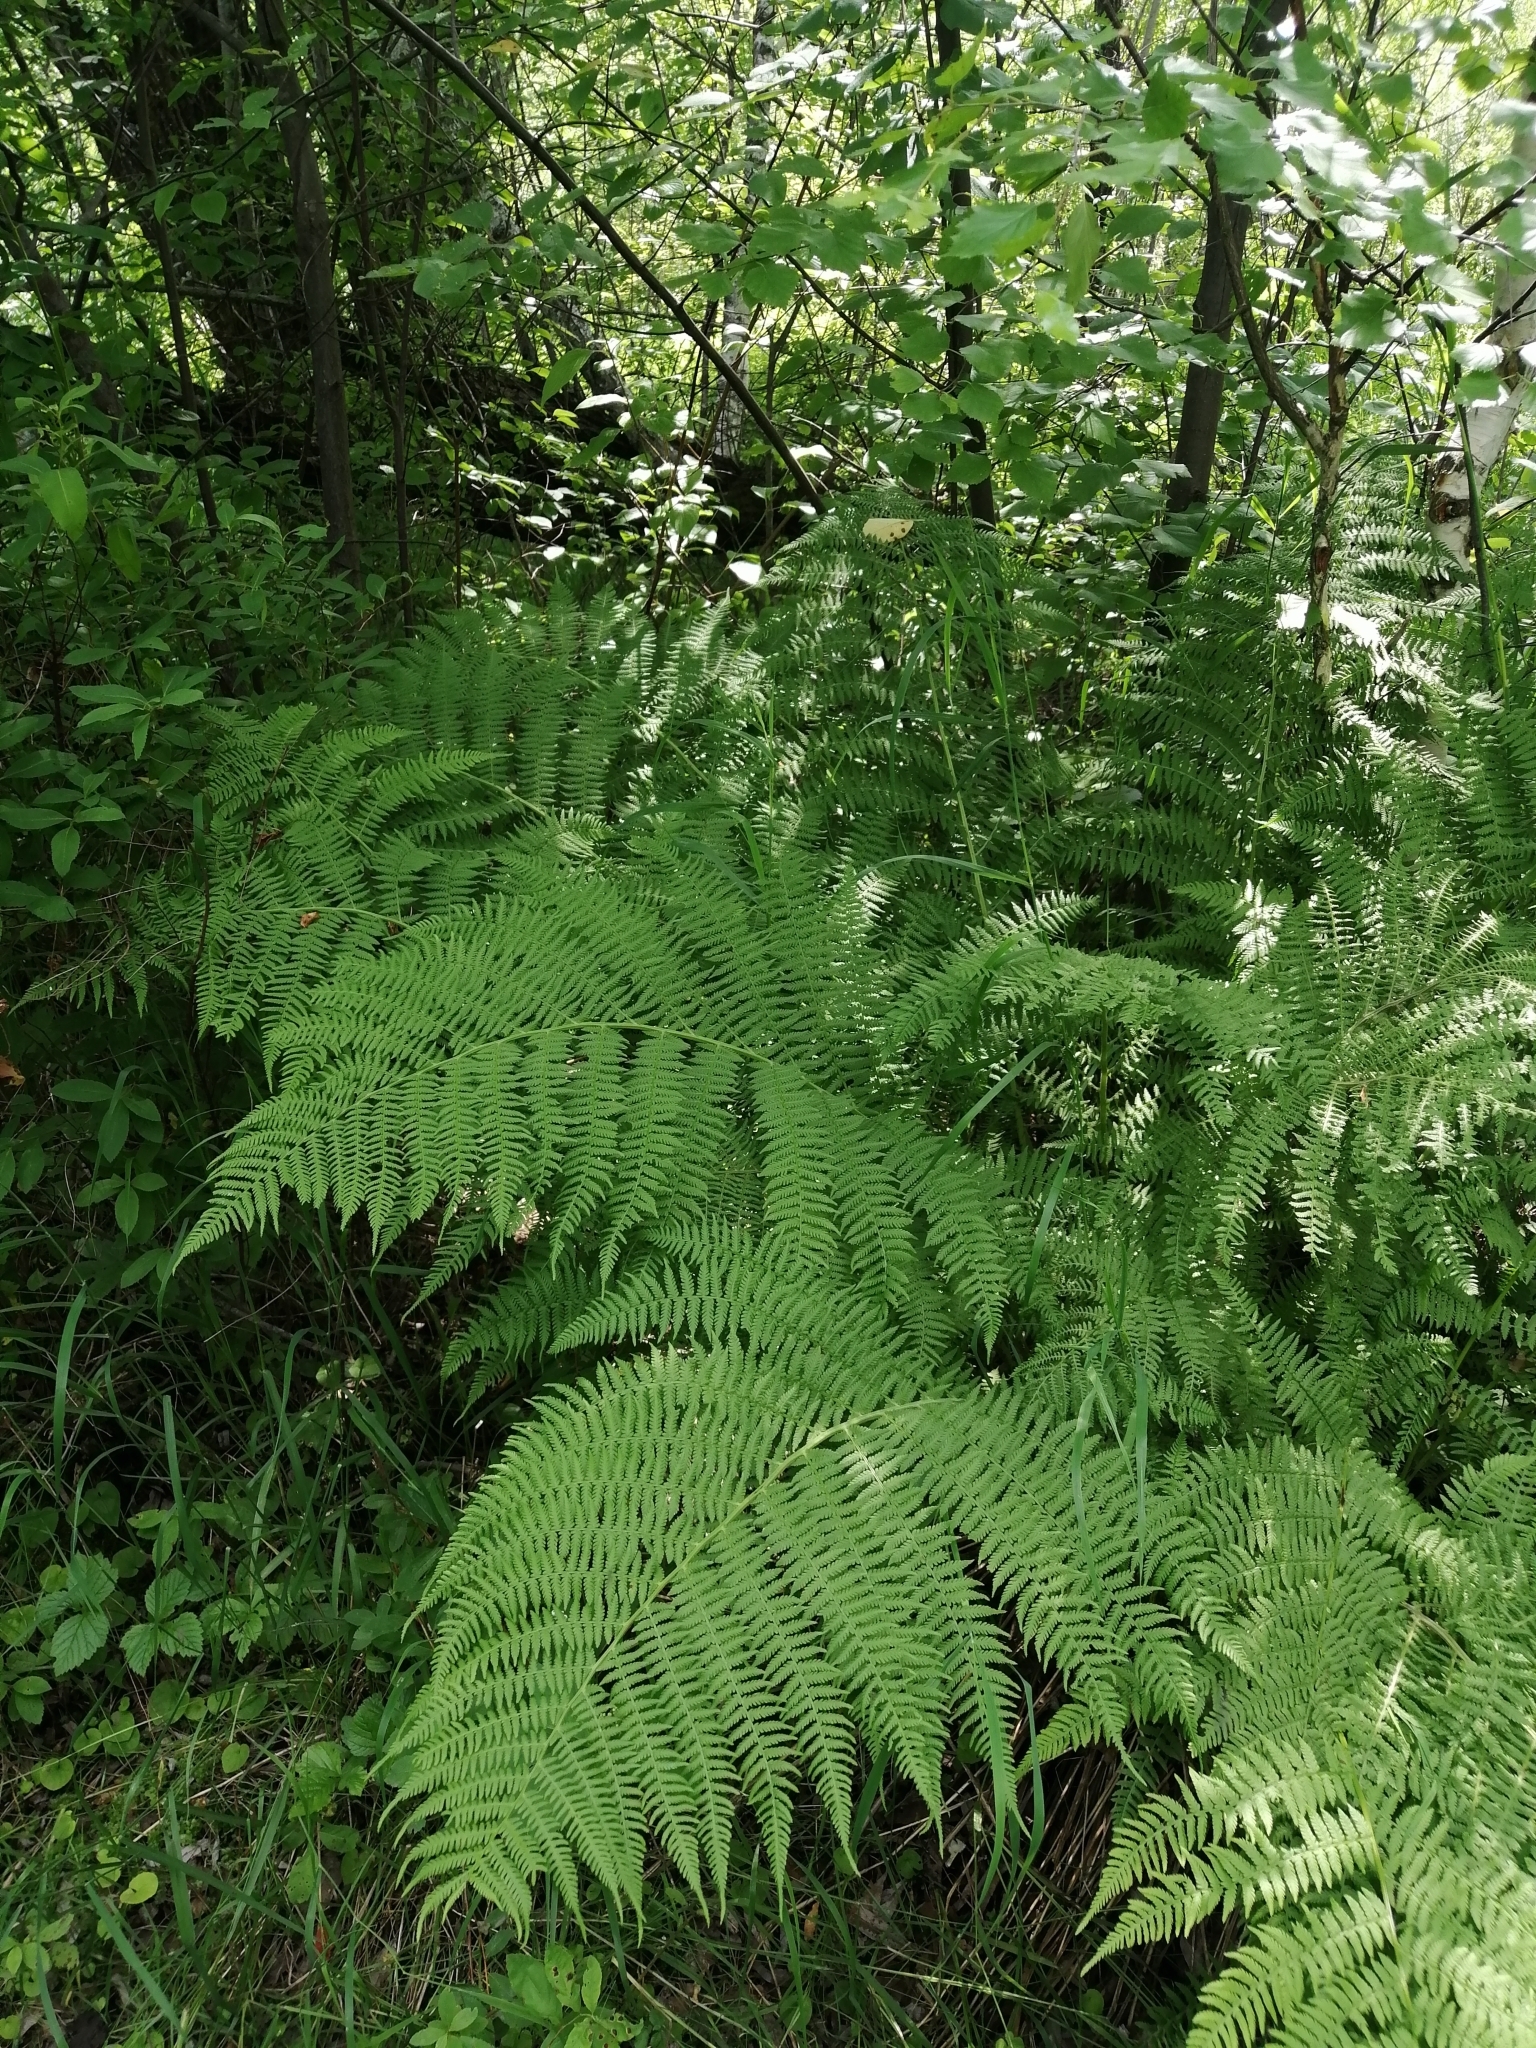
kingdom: Plantae
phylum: Tracheophyta
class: Polypodiopsida
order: Polypodiales
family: Athyriaceae
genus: Athyrium
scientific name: Athyrium filix-femina
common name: Lady fern
